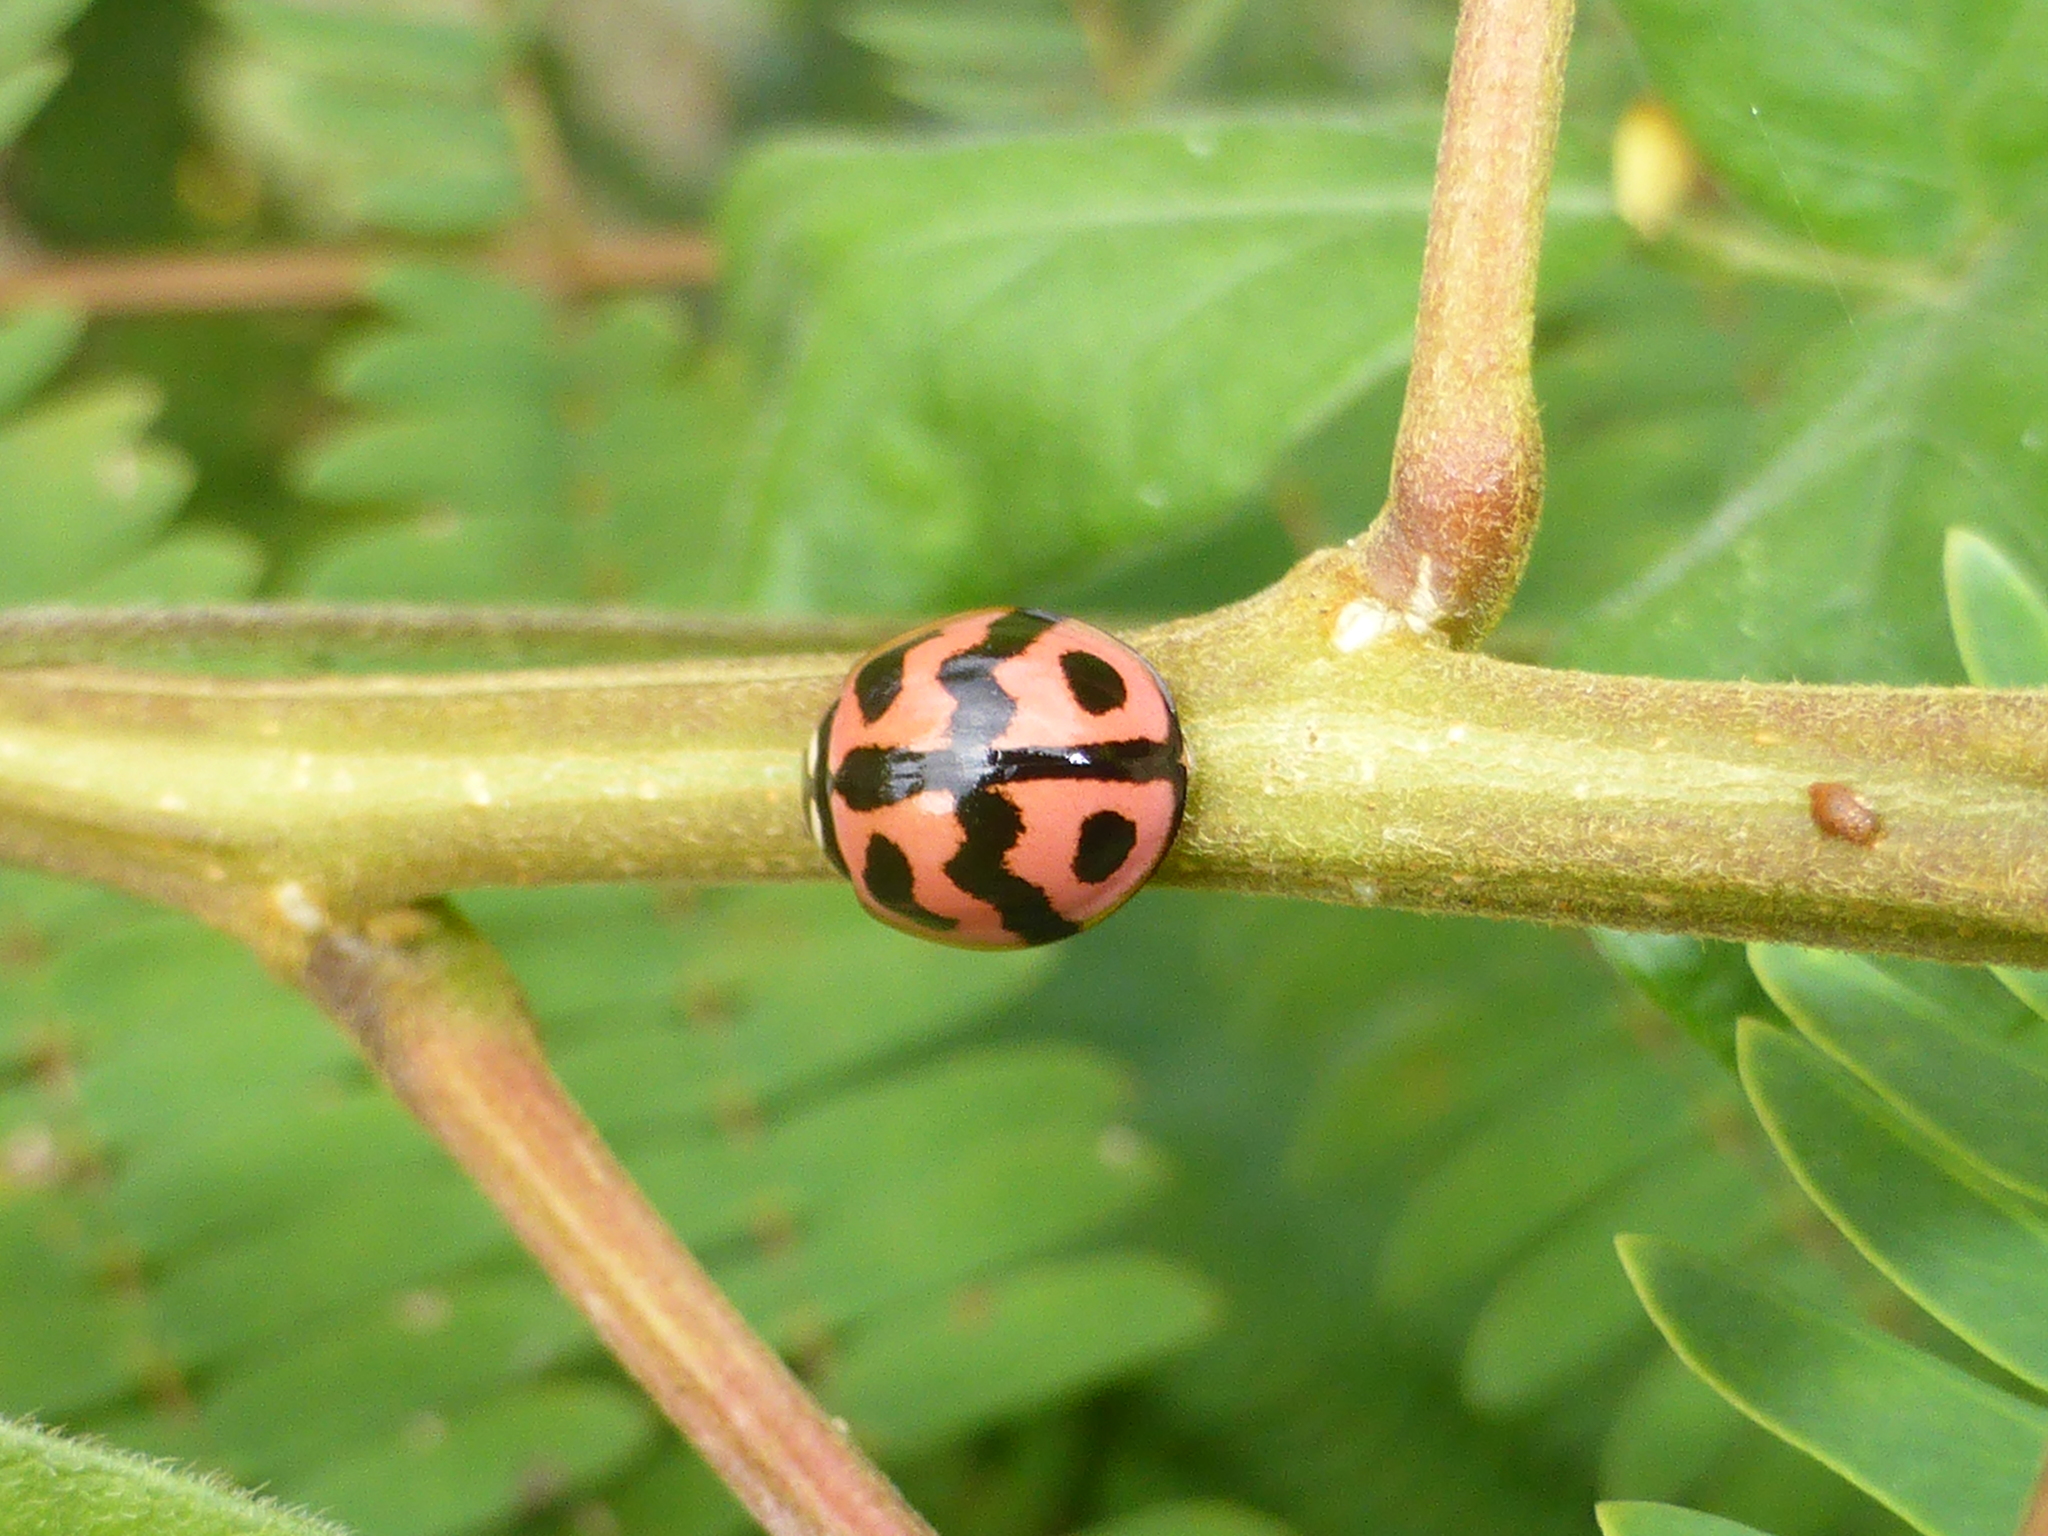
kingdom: Animalia
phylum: Arthropoda
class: Insecta
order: Coleoptera
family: Coccinellidae
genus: Cheilomenes
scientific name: Cheilomenes sexmaculata
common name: Ladybird beetle
